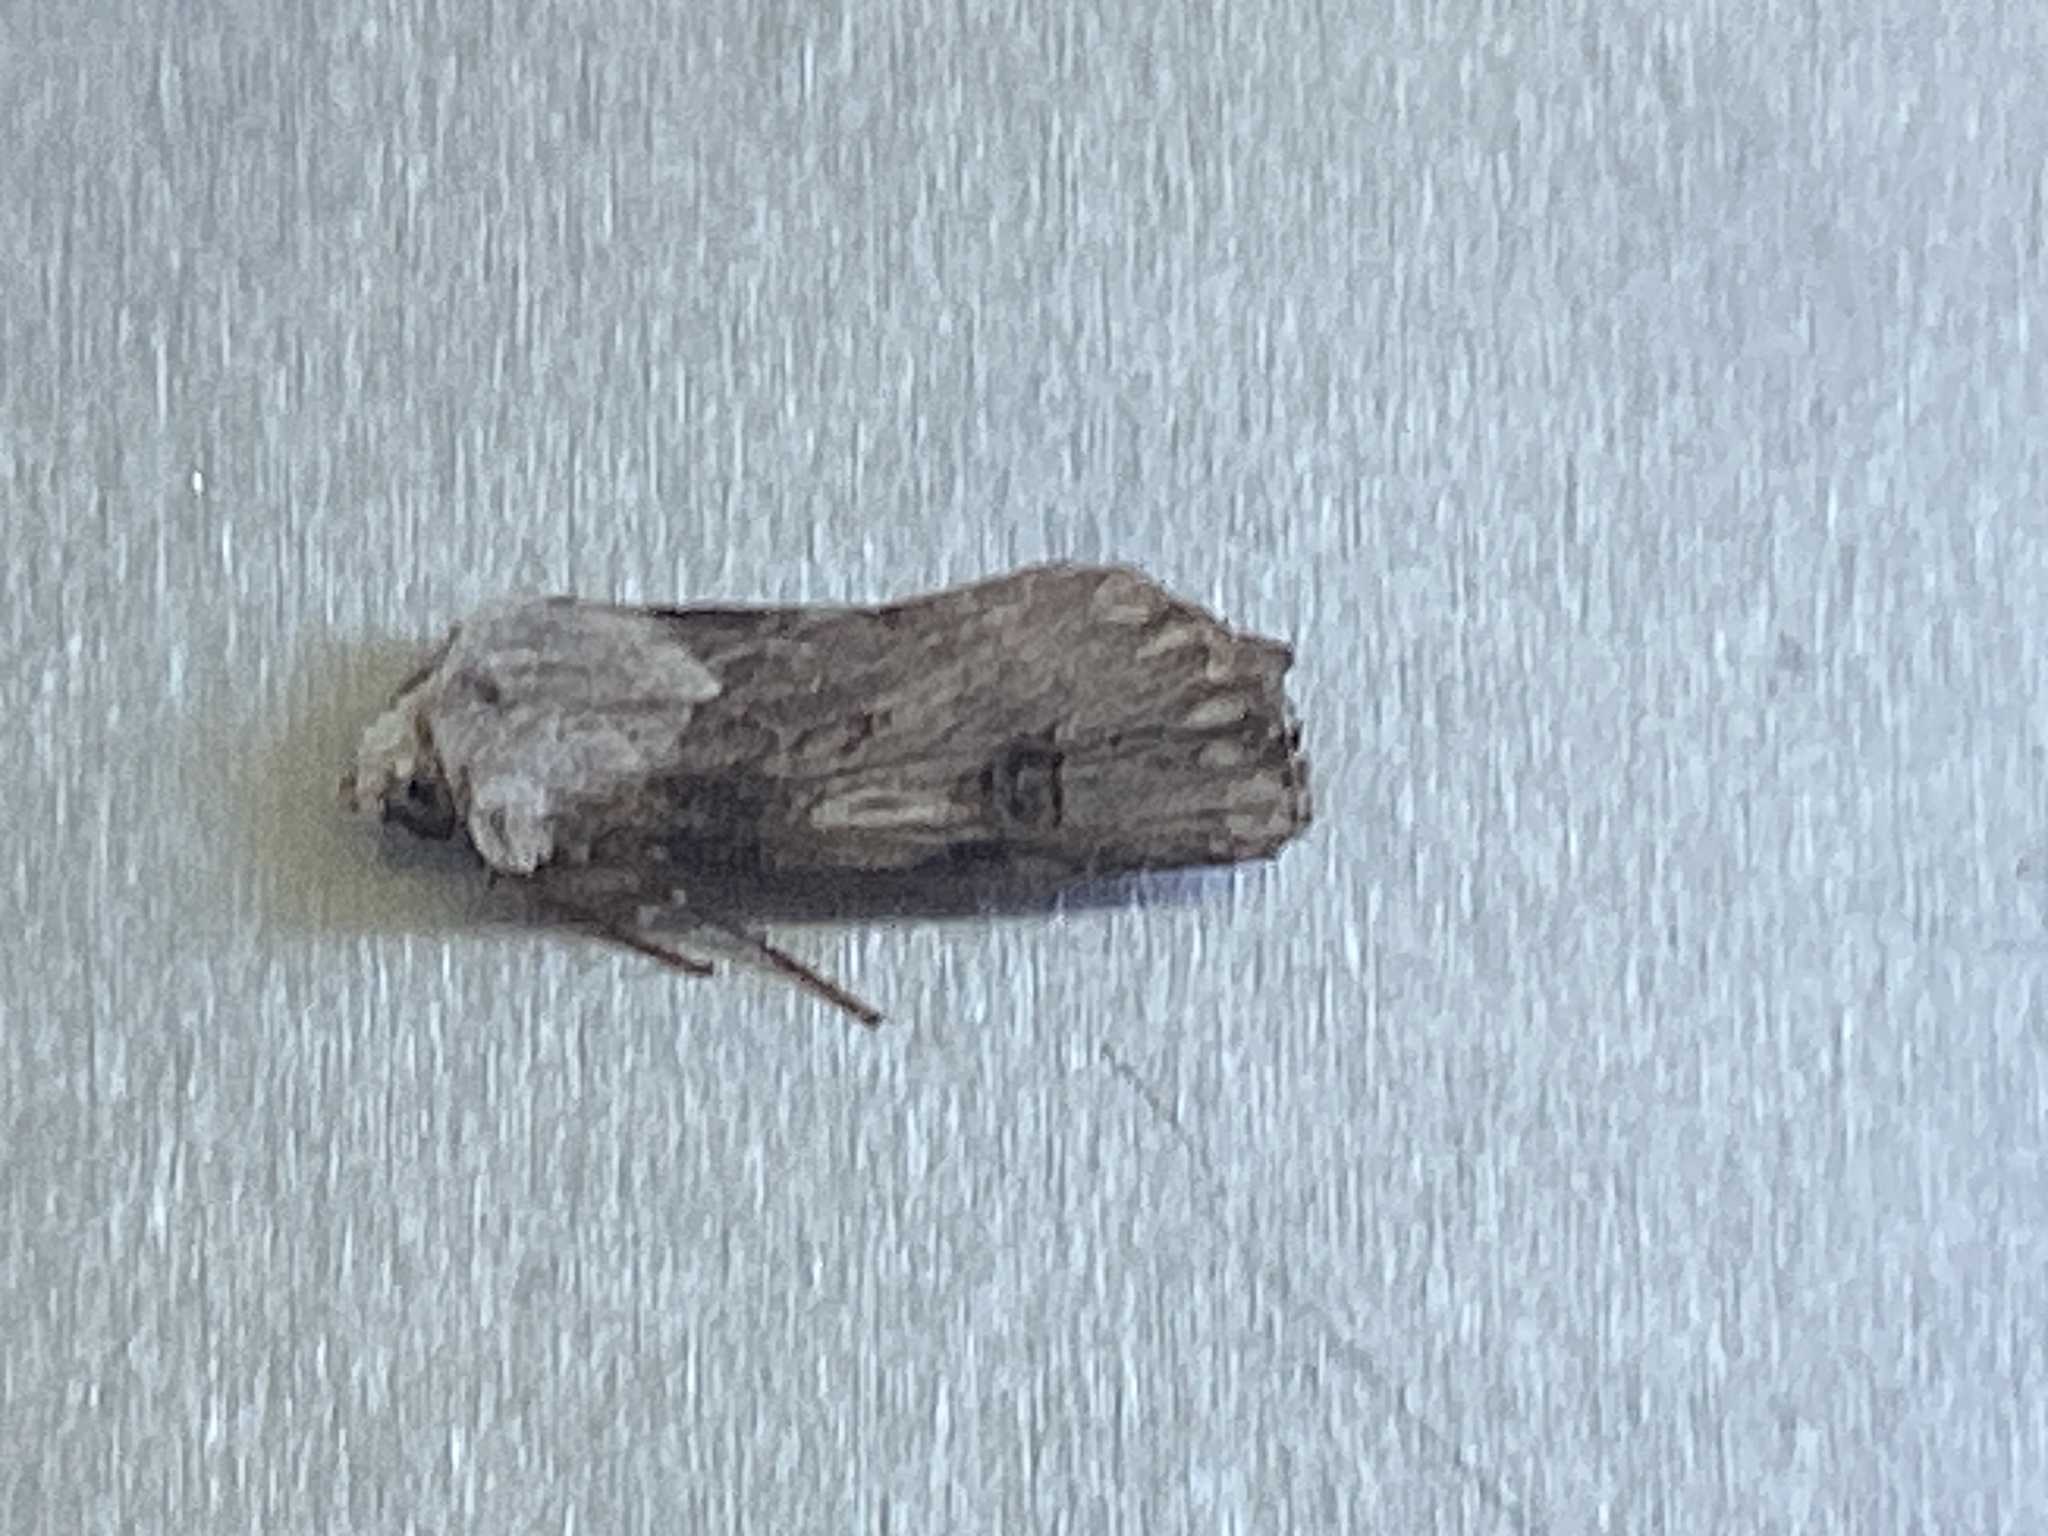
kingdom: Animalia
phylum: Arthropoda
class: Insecta
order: Lepidoptera
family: Noctuidae
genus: Agrotis
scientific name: Agrotis puta
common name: Shuttle-shaped dart
